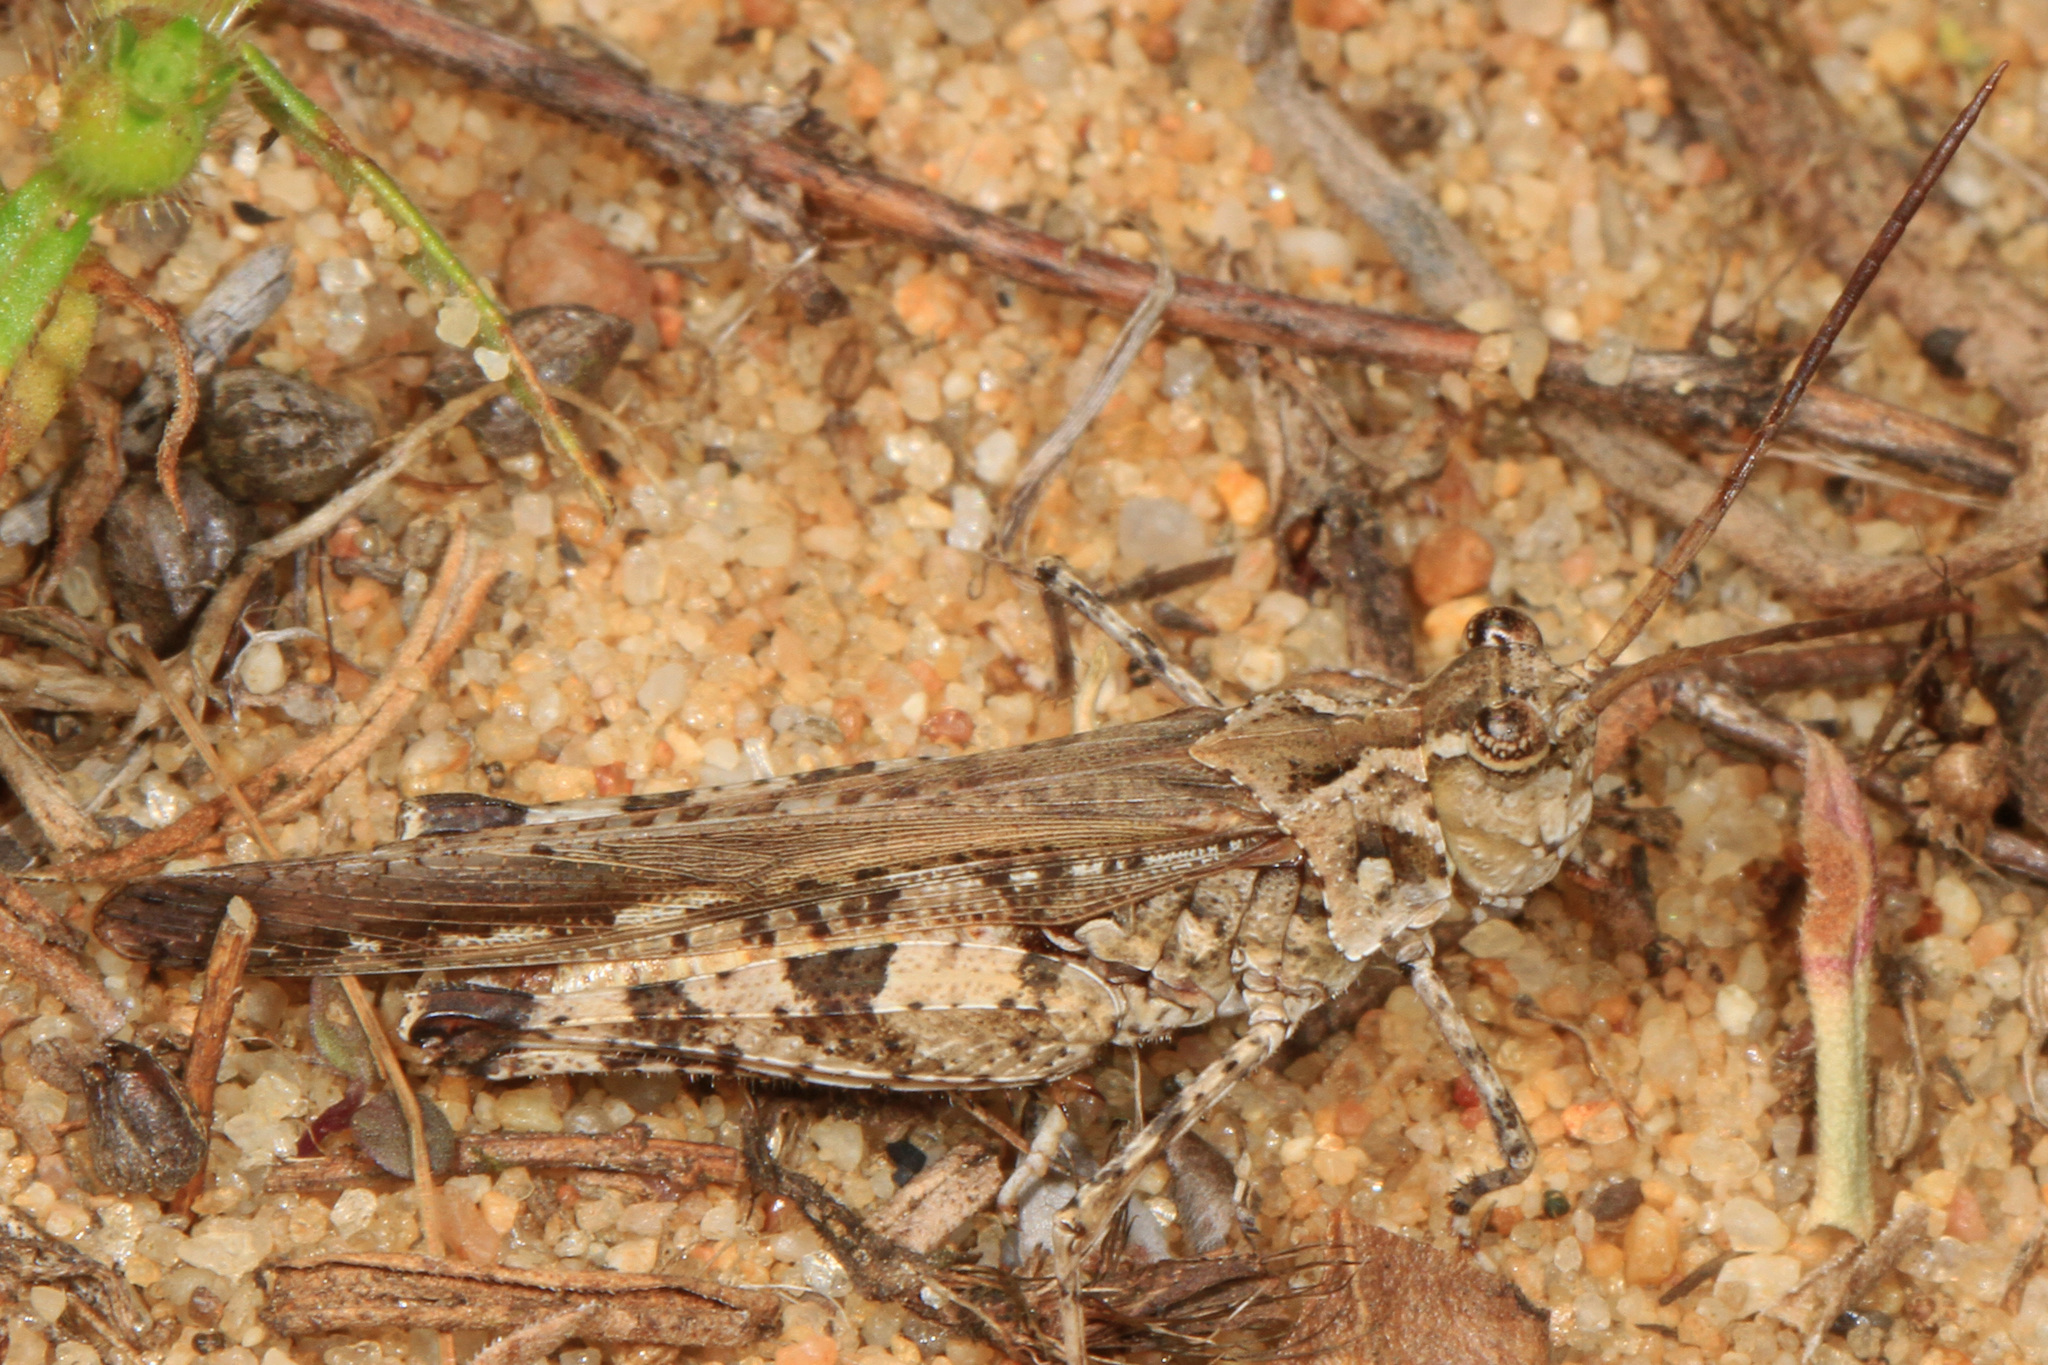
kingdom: Animalia
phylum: Arthropoda
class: Insecta
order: Orthoptera
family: Acrididae
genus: Psinidia
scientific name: Psinidia fenestralis
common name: Long-horned locust
